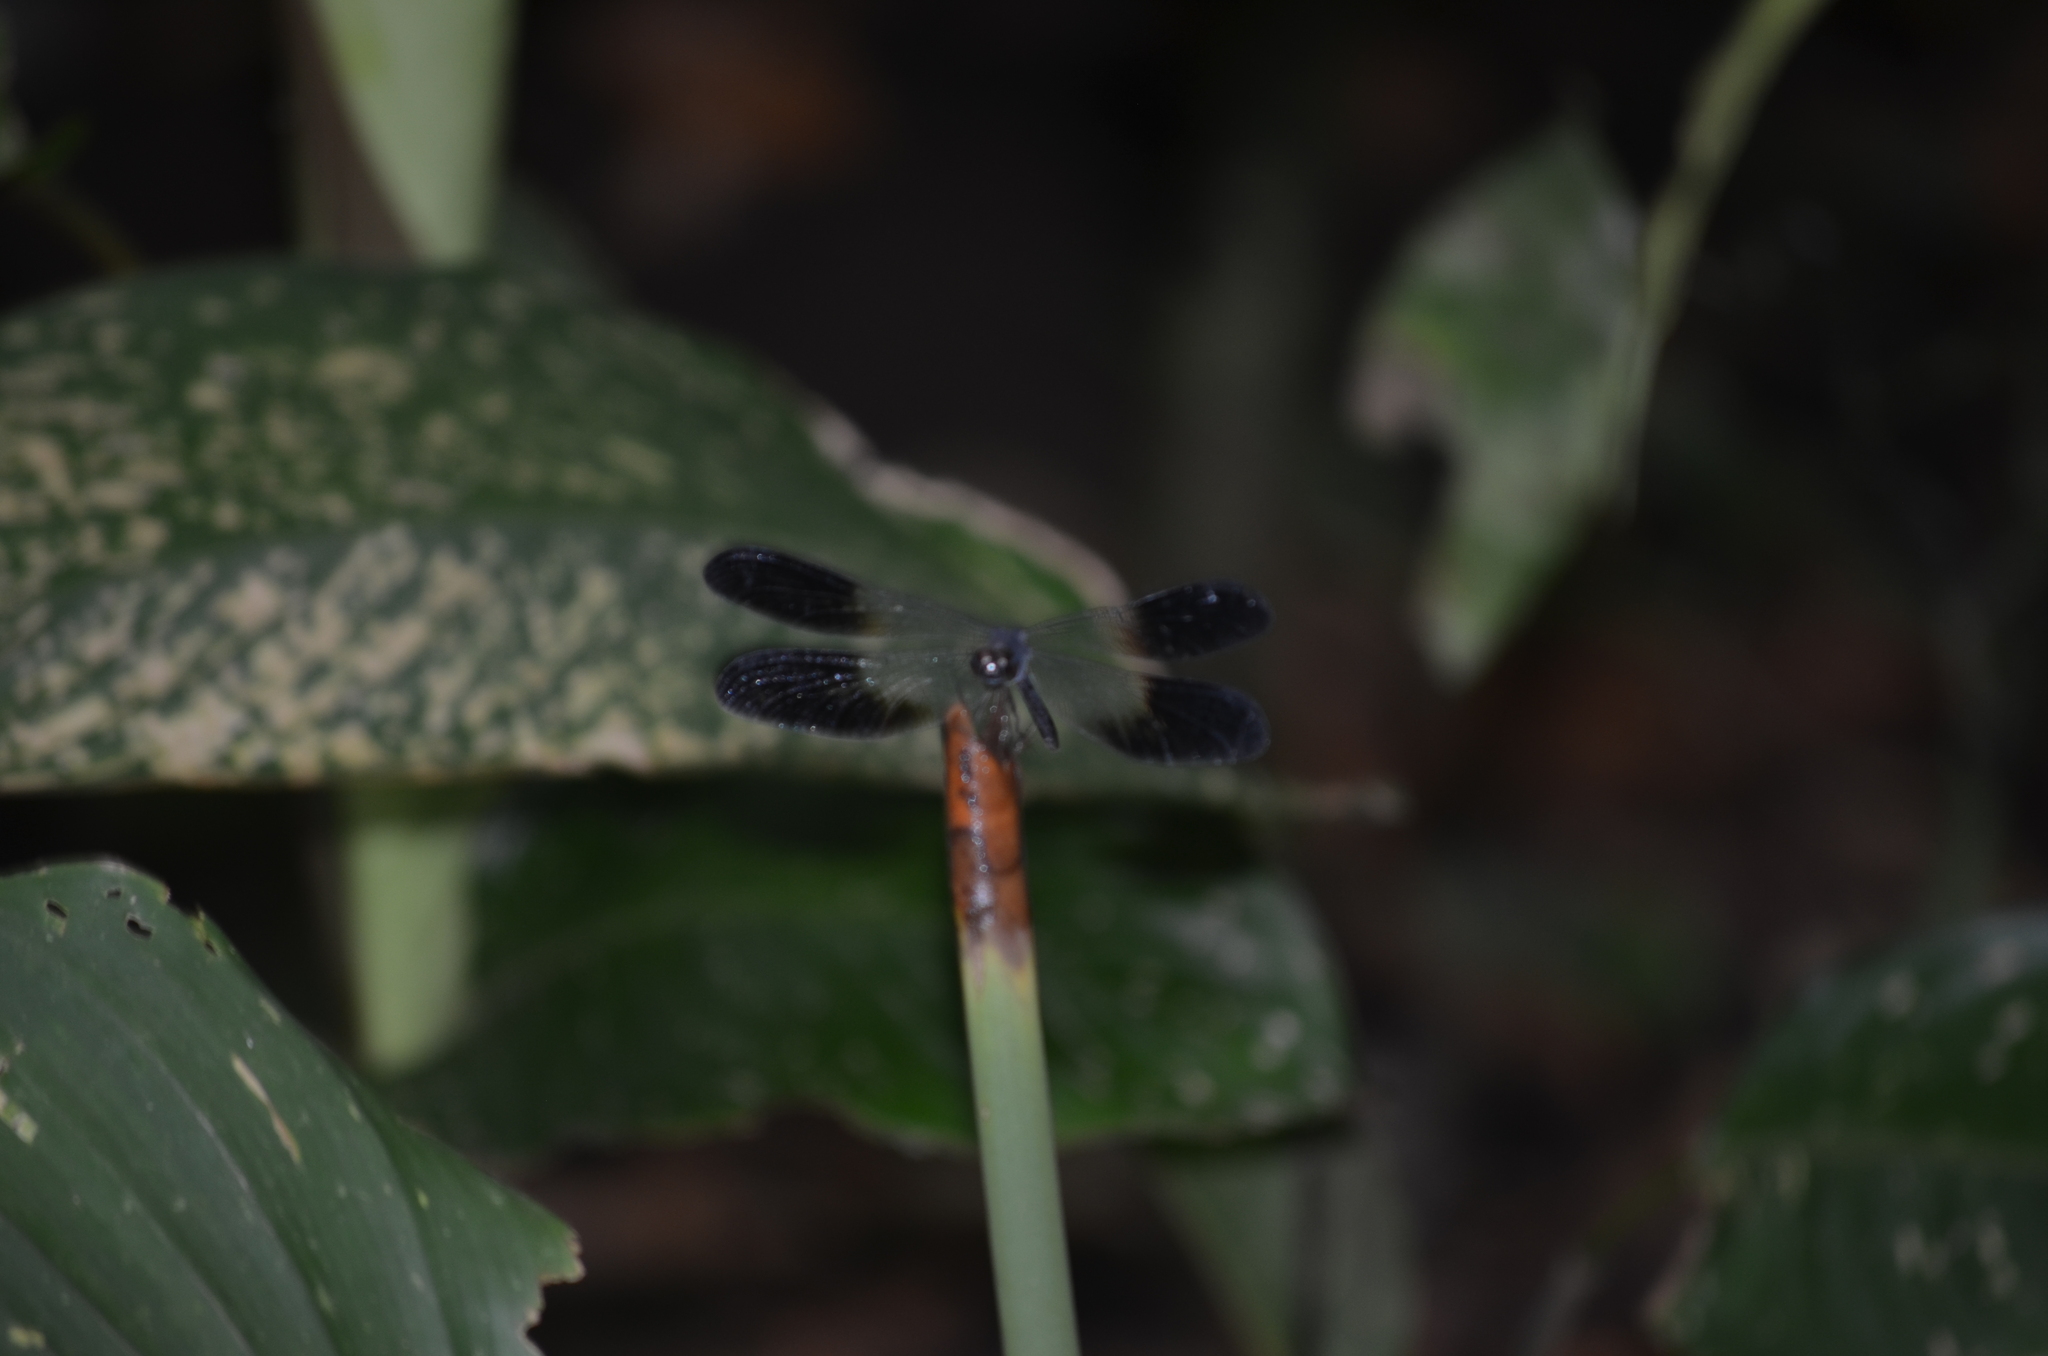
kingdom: Animalia
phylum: Arthropoda
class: Insecta
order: Odonata
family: Libellulidae
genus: Uracis
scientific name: Uracis fastigiata
